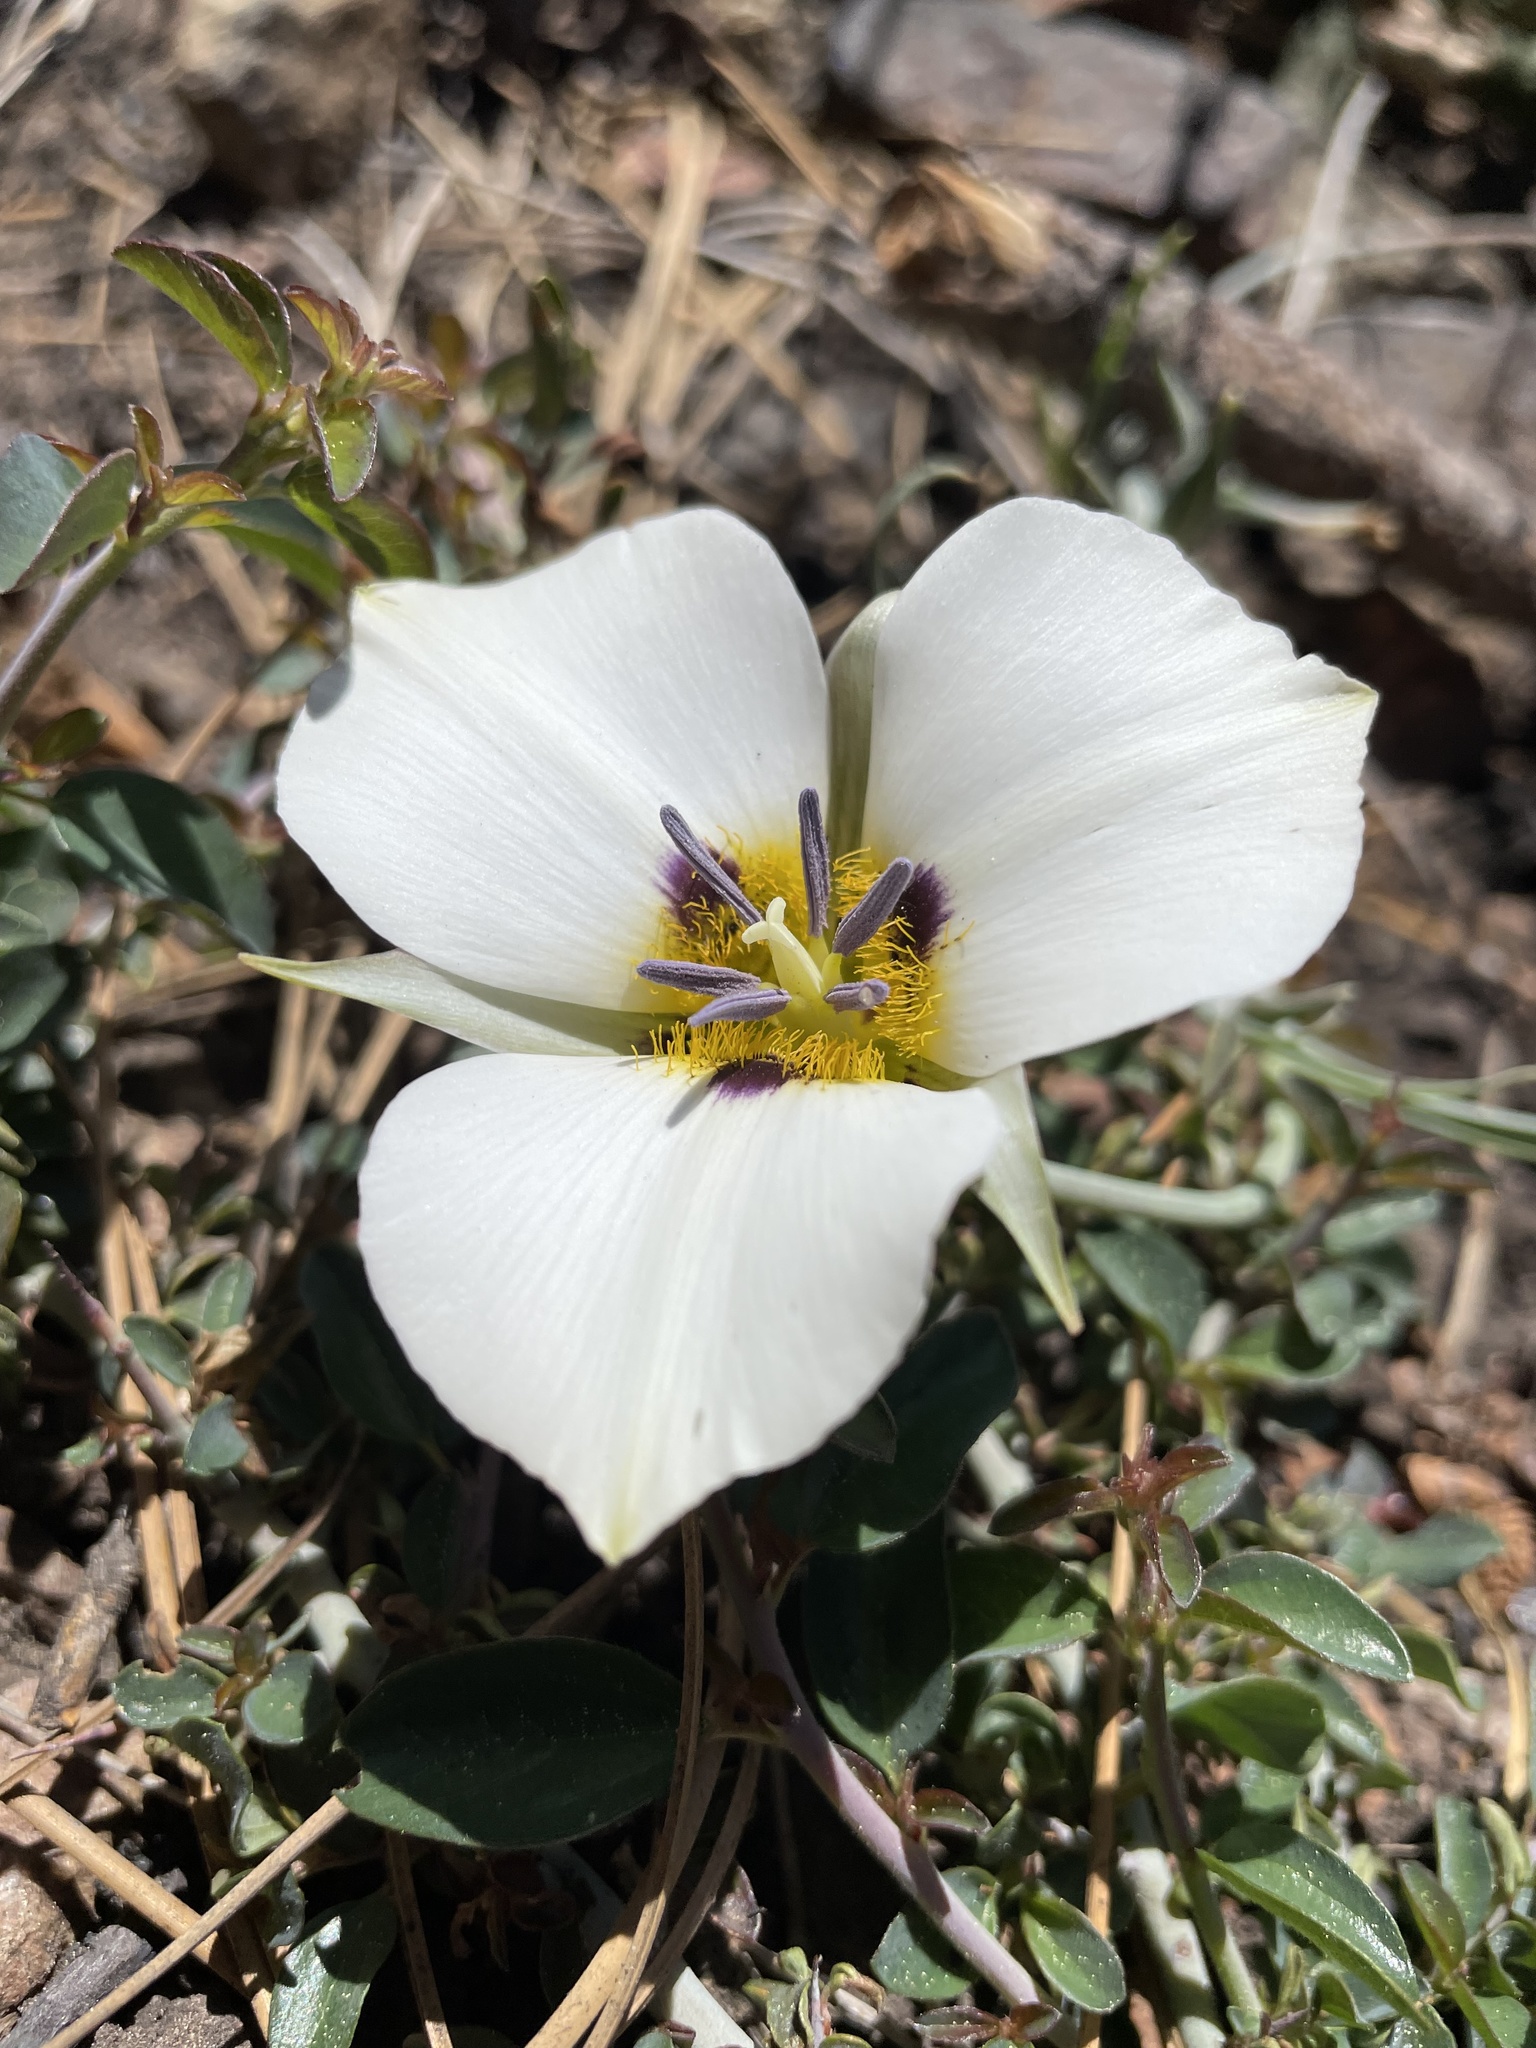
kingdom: Plantae
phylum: Tracheophyta
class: Liliopsida
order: Liliales
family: Liliaceae
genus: Calochortus
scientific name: Calochortus leichtlinii
